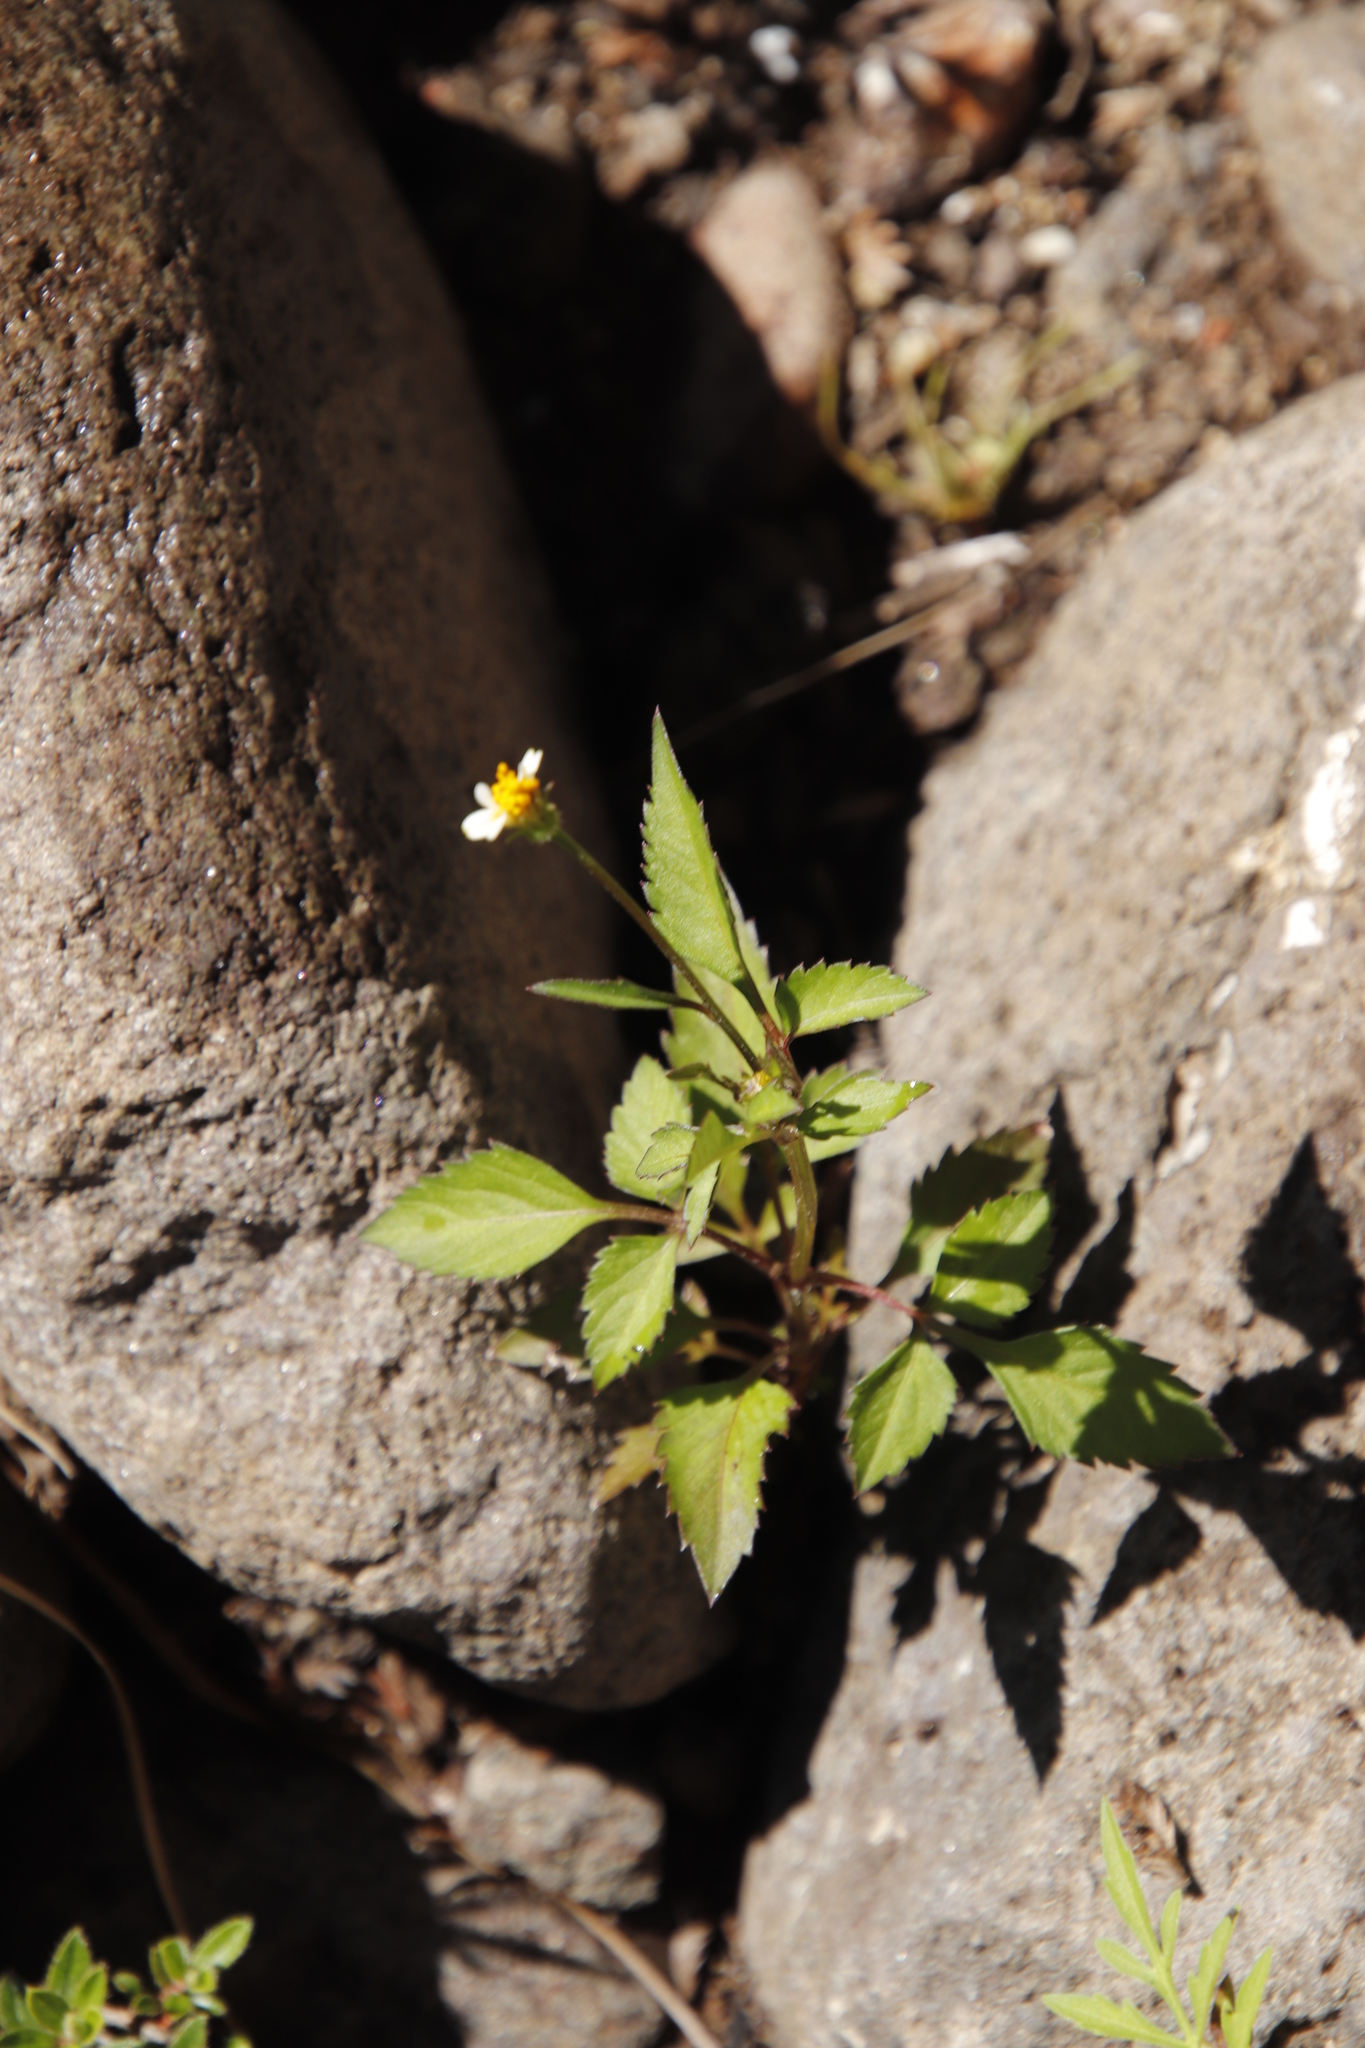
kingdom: Plantae
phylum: Tracheophyta
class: Magnoliopsida
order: Asterales
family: Asteraceae
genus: Bidens
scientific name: Bidens pilosa
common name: Black-jack
